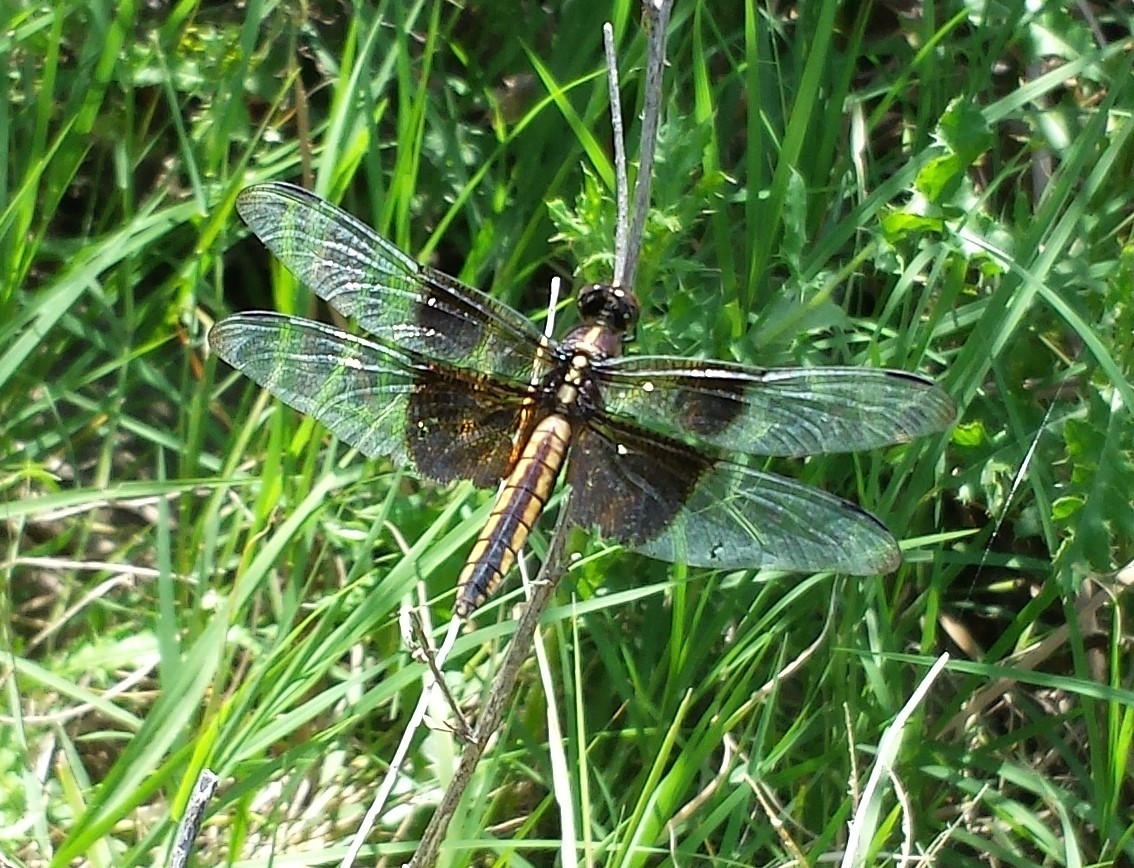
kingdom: Animalia
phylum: Arthropoda
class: Insecta
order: Odonata
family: Libellulidae
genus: Libellula
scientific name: Libellula luctuosa
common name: Widow skimmer
